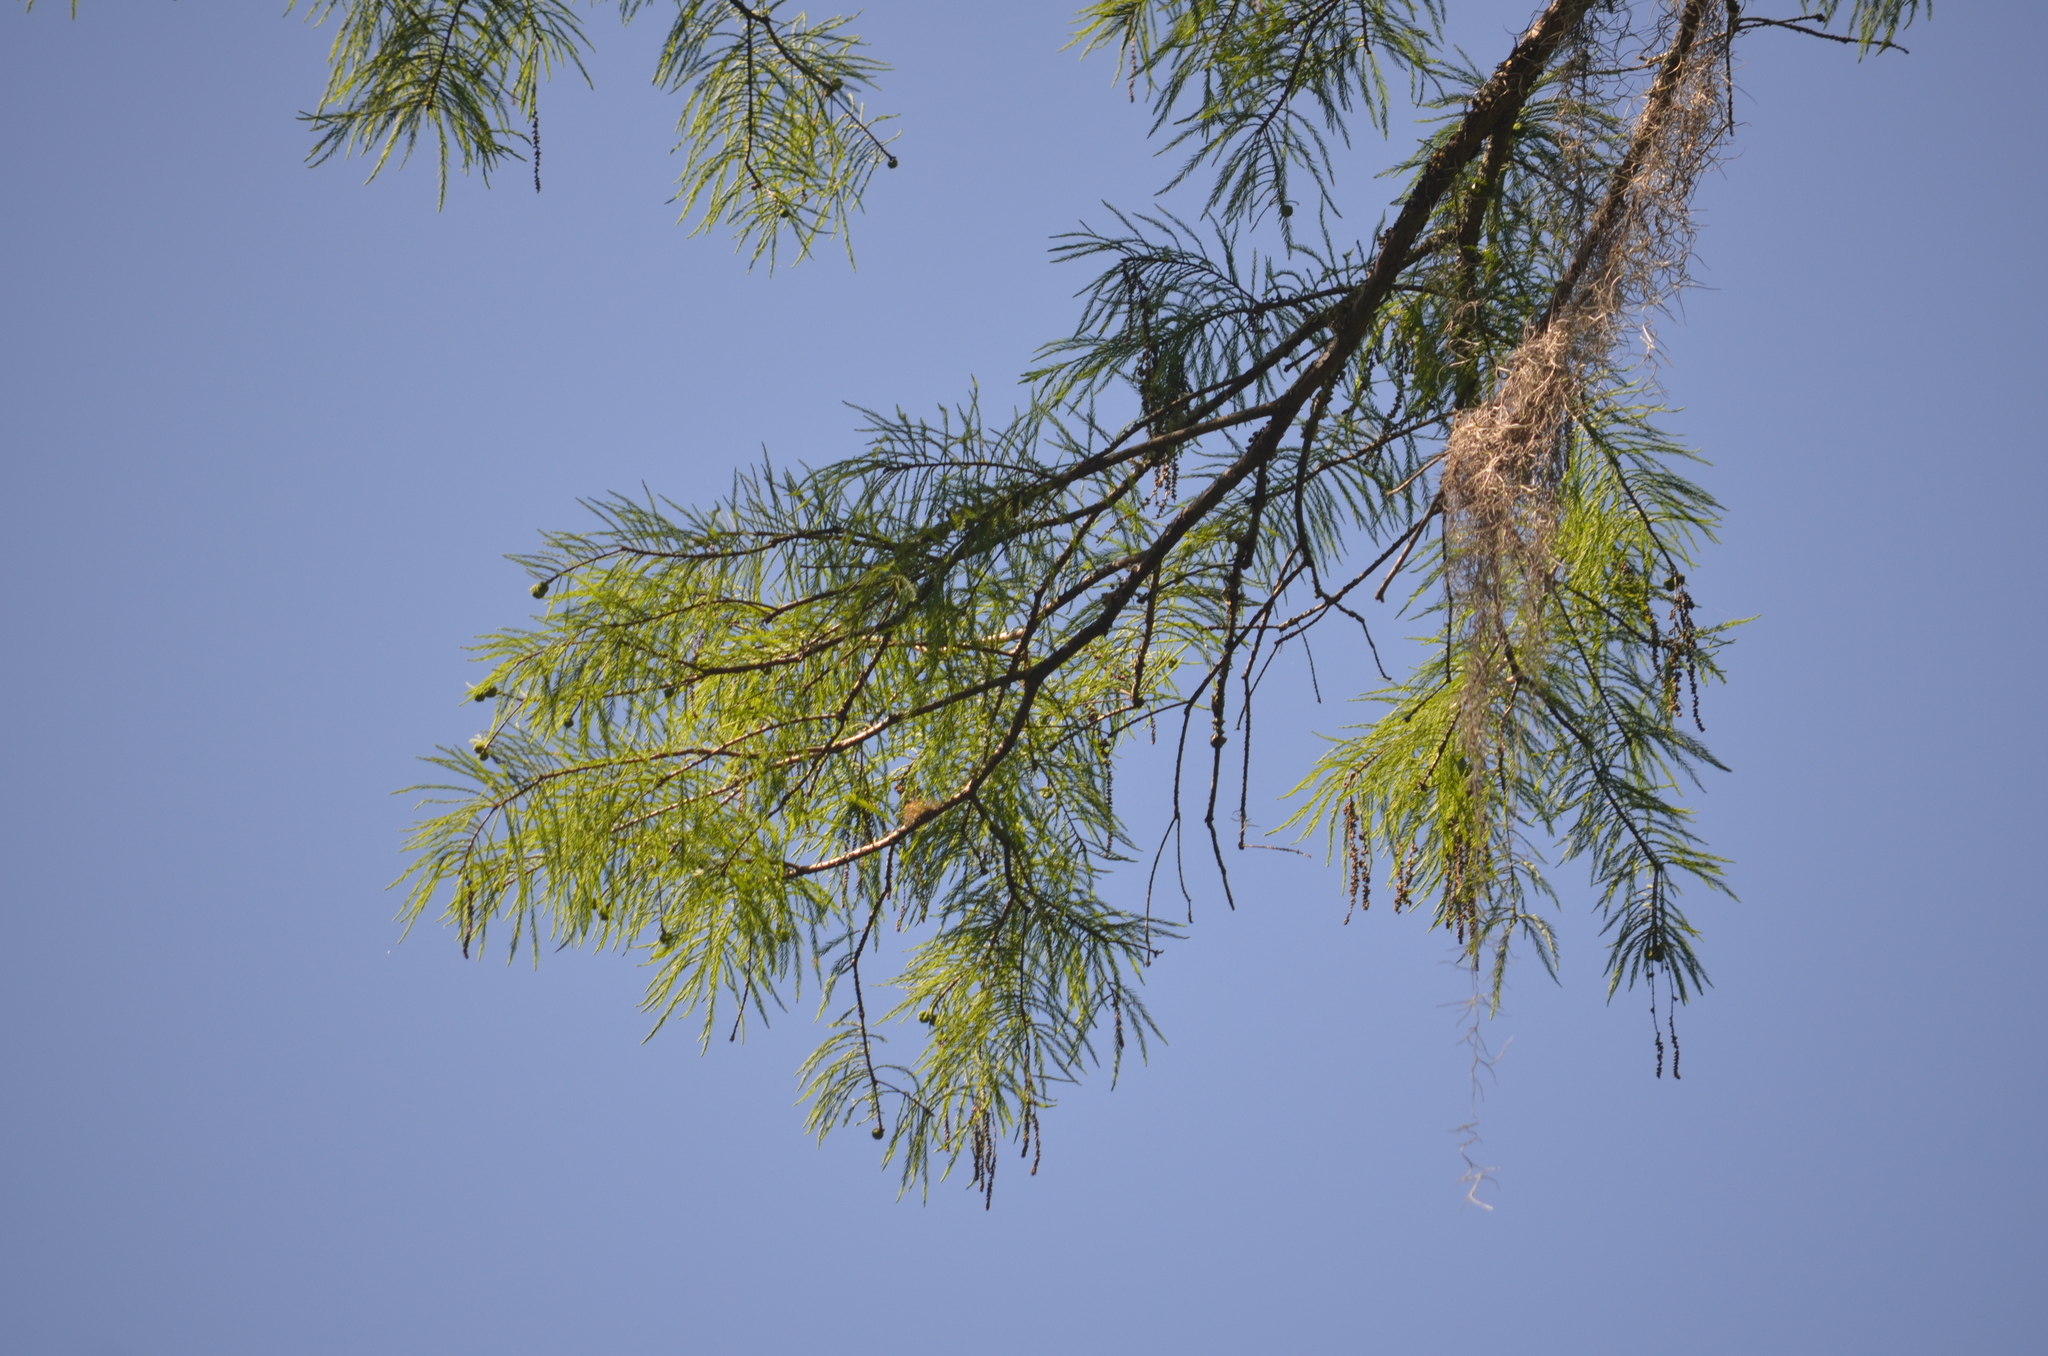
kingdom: Plantae
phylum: Tracheophyta
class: Pinopsida
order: Pinales
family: Cupressaceae
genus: Taxodium
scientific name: Taxodium distichum
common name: Bald cypress
